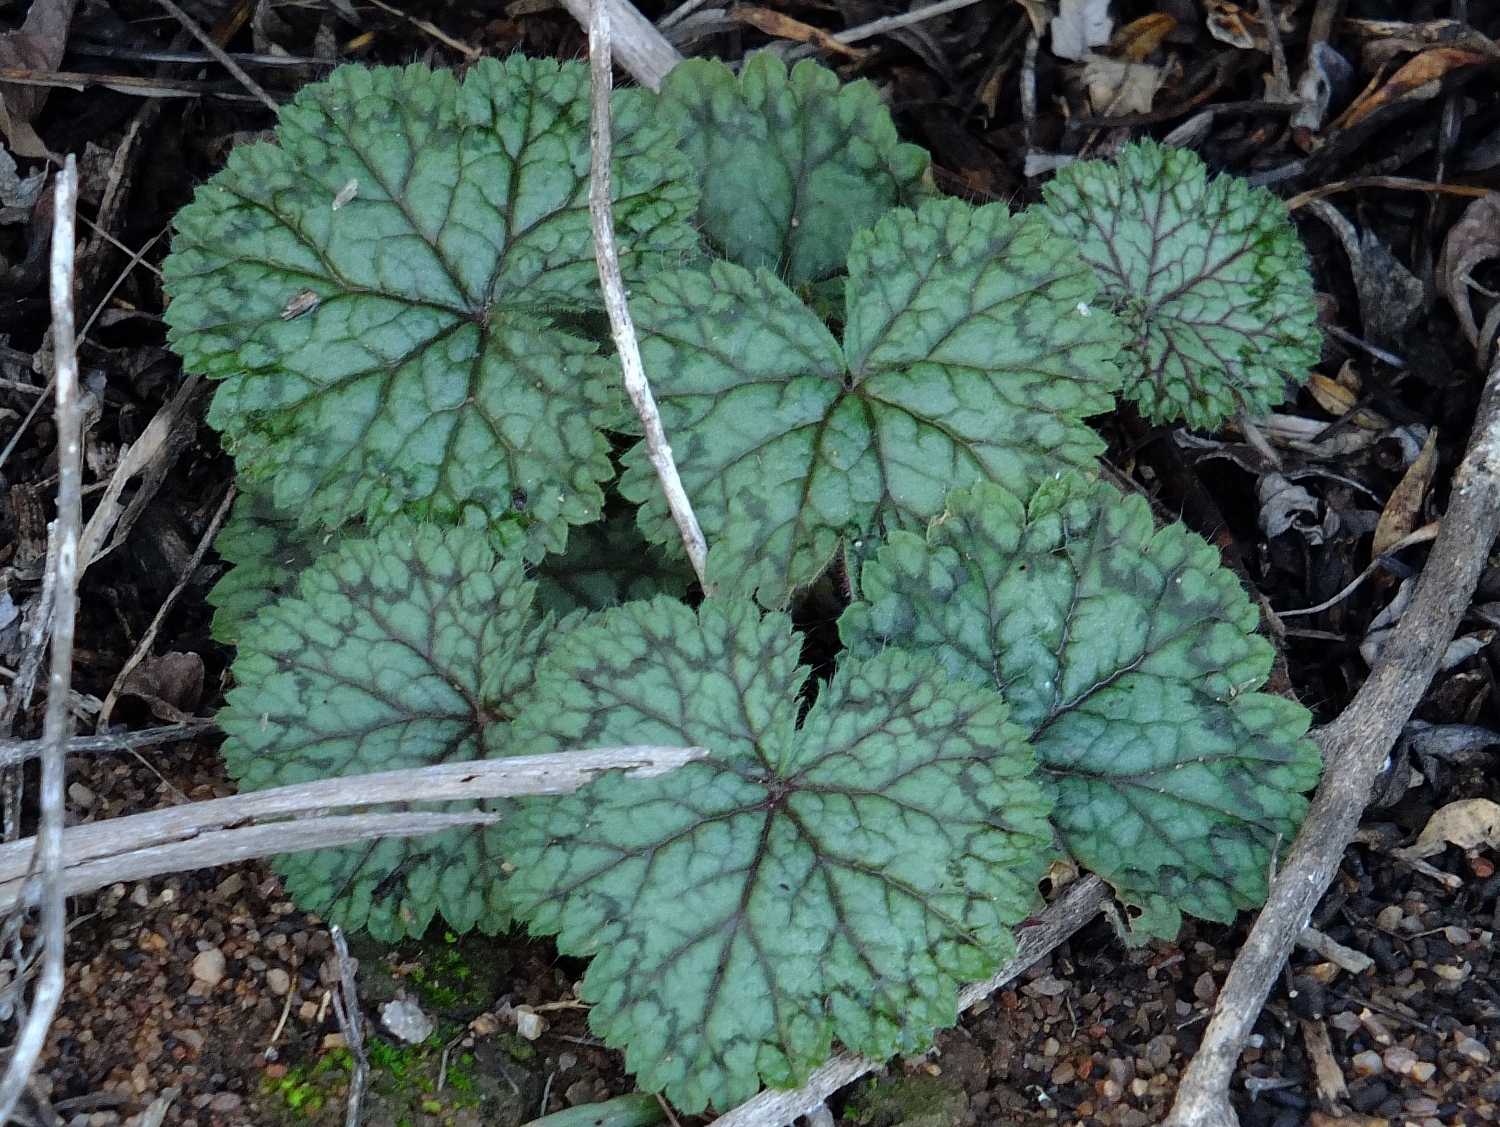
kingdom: Plantae
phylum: Tracheophyta
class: Magnoliopsida
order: Geraniales
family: Geraniaceae
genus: Pelargonium
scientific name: Pelargonium barklyi
